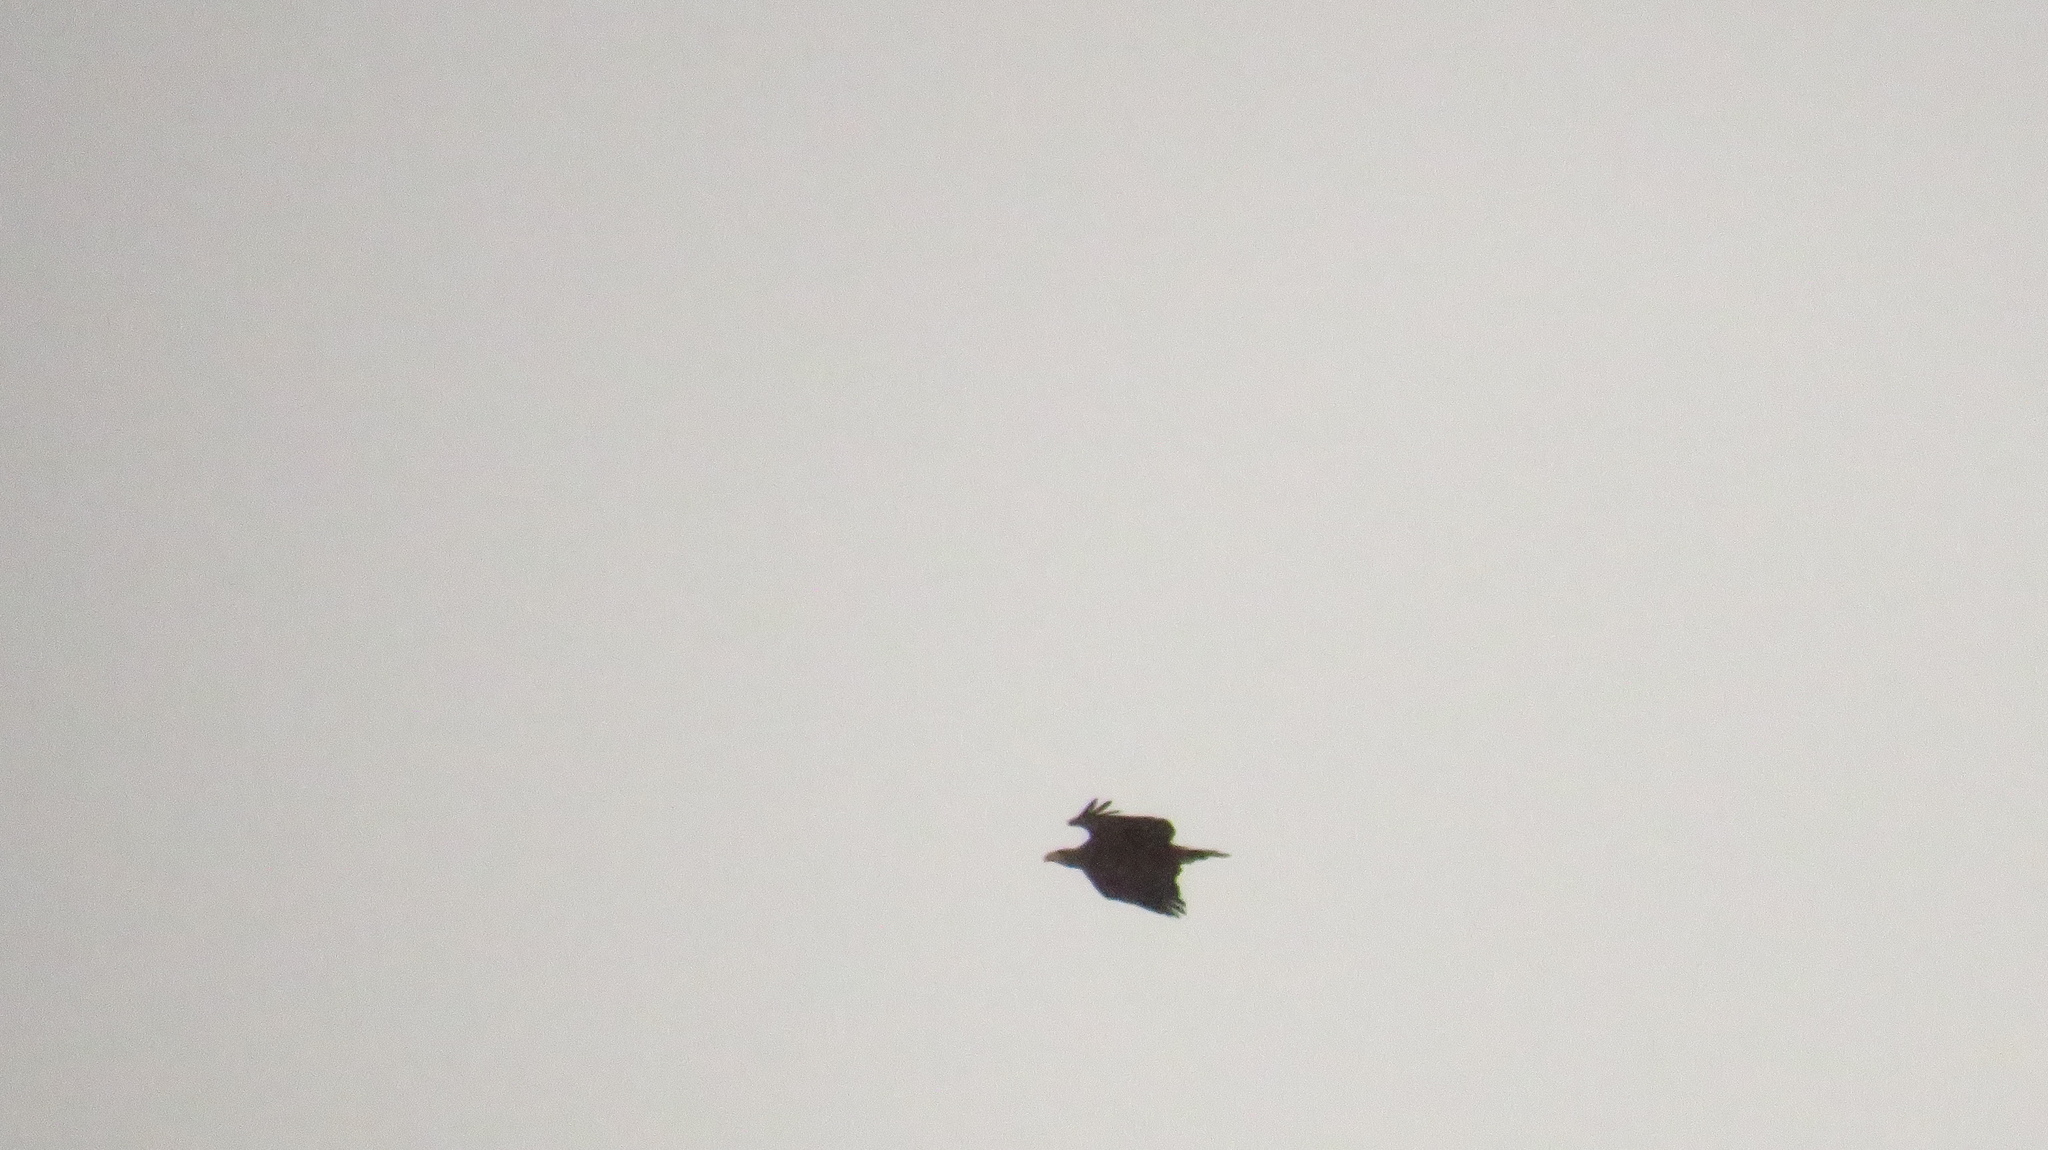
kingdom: Animalia
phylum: Chordata
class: Aves
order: Accipitriformes
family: Accipitridae
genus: Haliaeetus
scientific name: Haliaeetus albicilla
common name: White-tailed eagle
